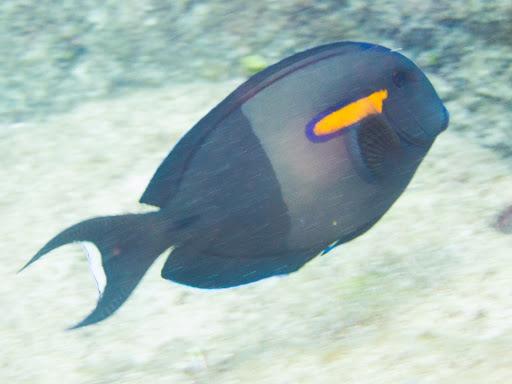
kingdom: Animalia
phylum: Chordata
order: Perciformes
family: Acanthuridae
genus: Acanthurus
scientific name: Acanthurus olivaceus
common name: Gendarme fish
